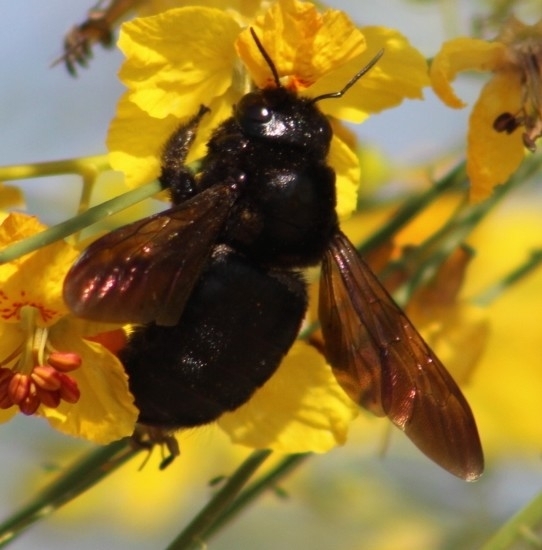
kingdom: Animalia
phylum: Arthropoda
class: Insecta
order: Hymenoptera
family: Apidae
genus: Xylocopa
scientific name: Xylocopa sonorina
